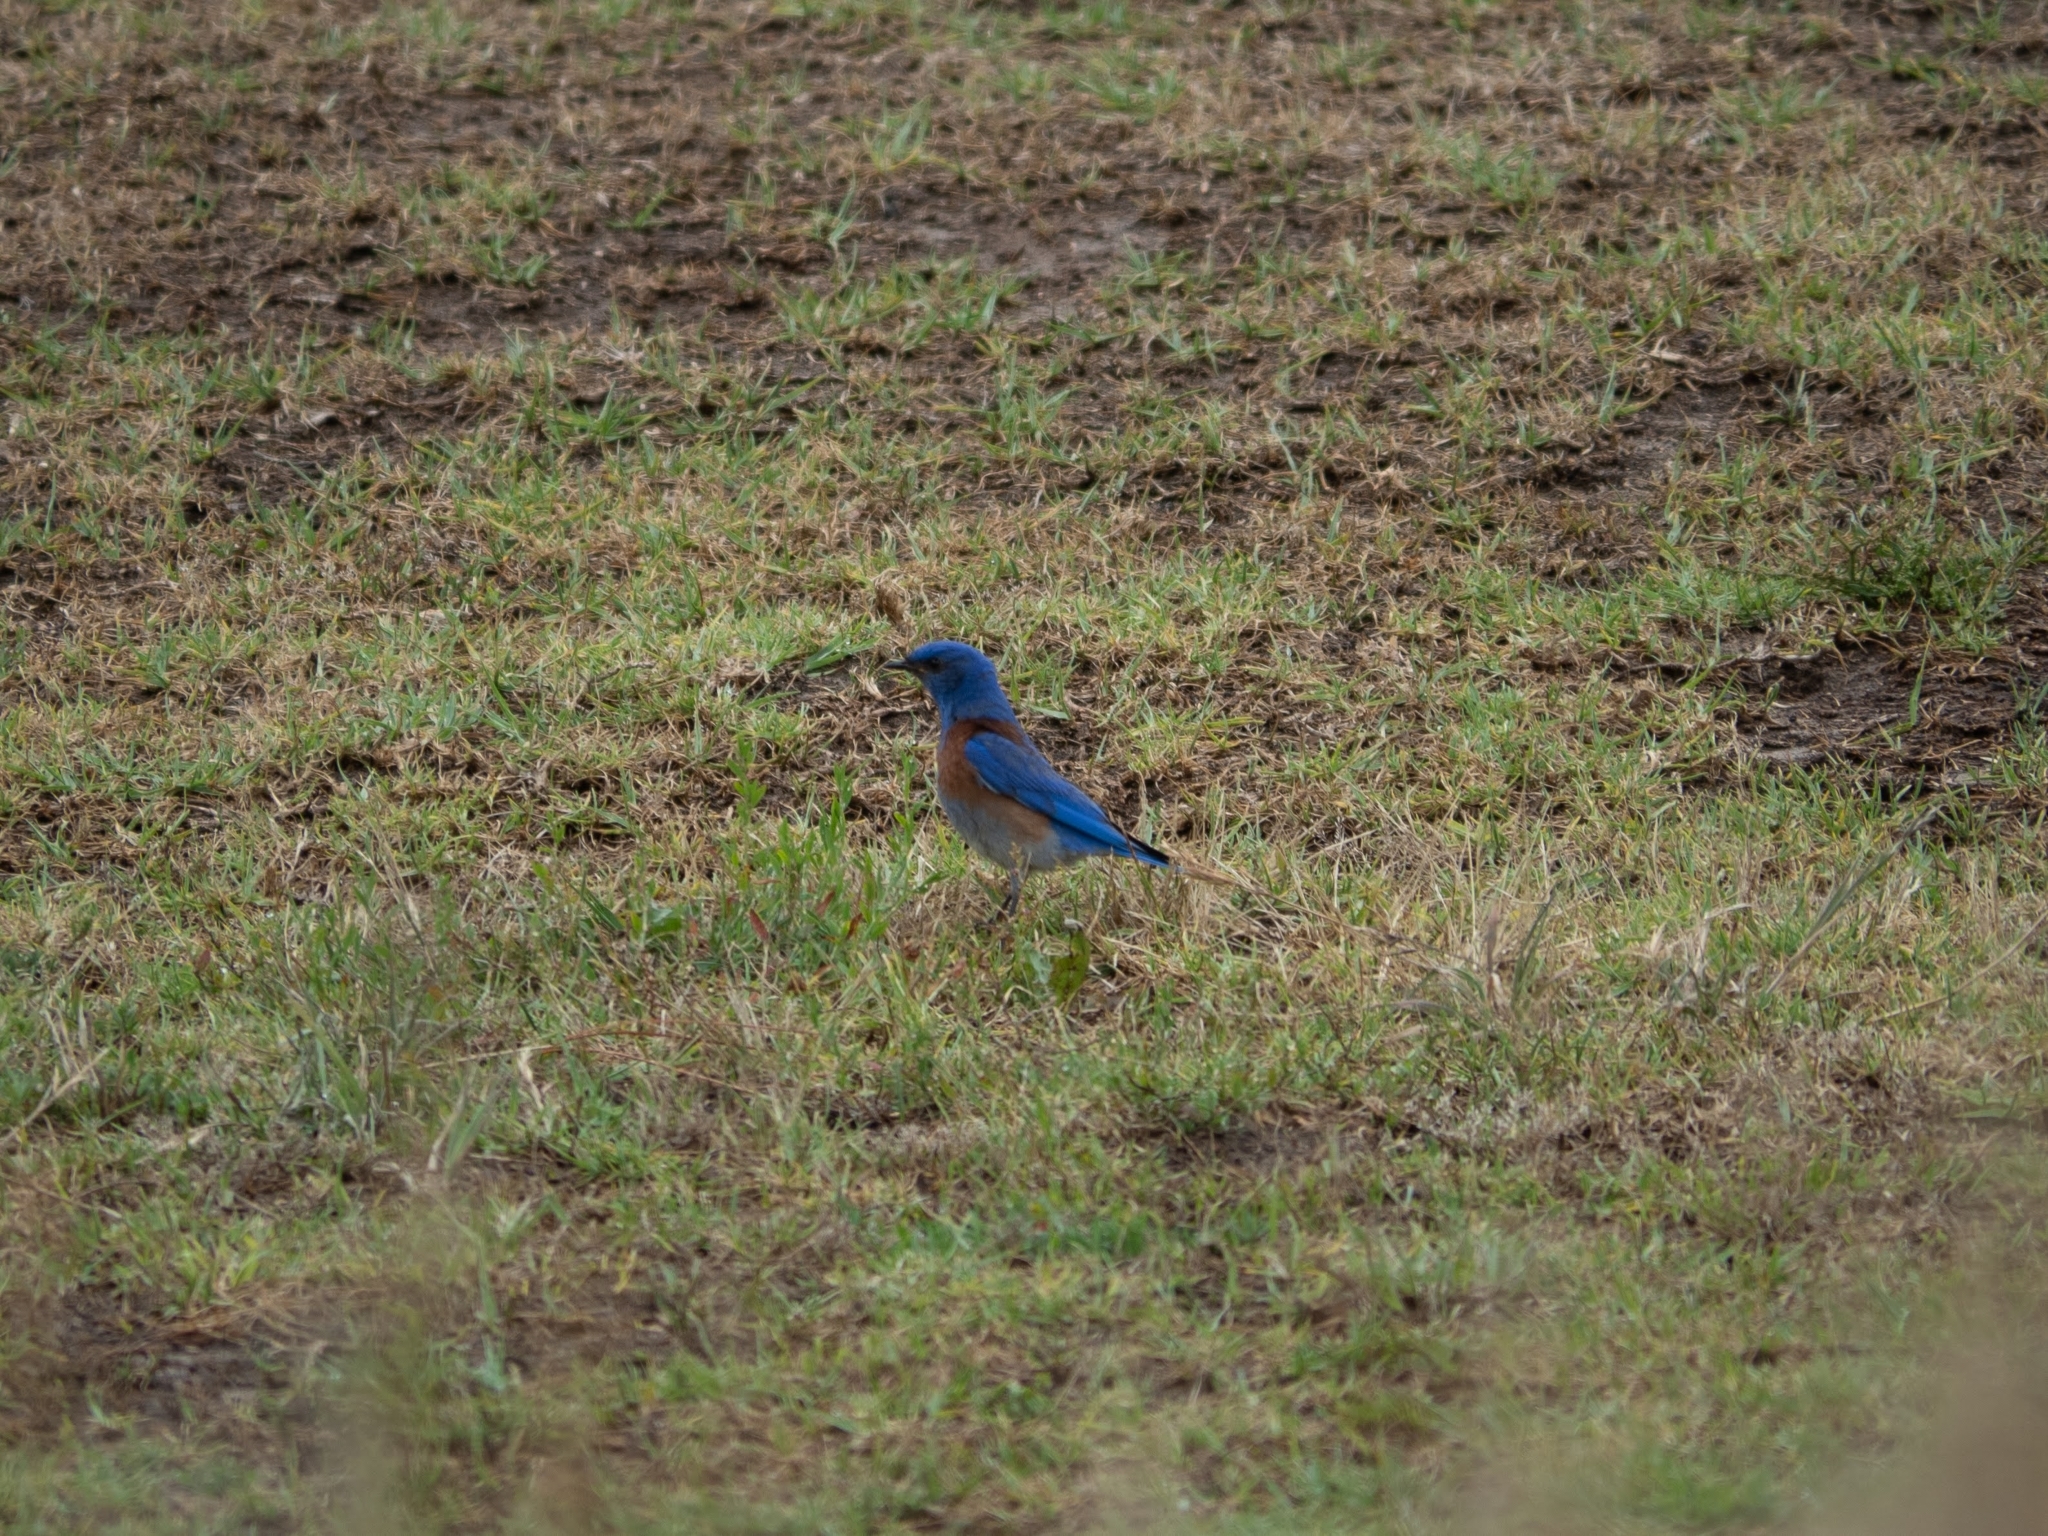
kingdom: Animalia
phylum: Chordata
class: Aves
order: Passeriformes
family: Turdidae
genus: Sialia
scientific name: Sialia mexicana
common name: Western bluebird
